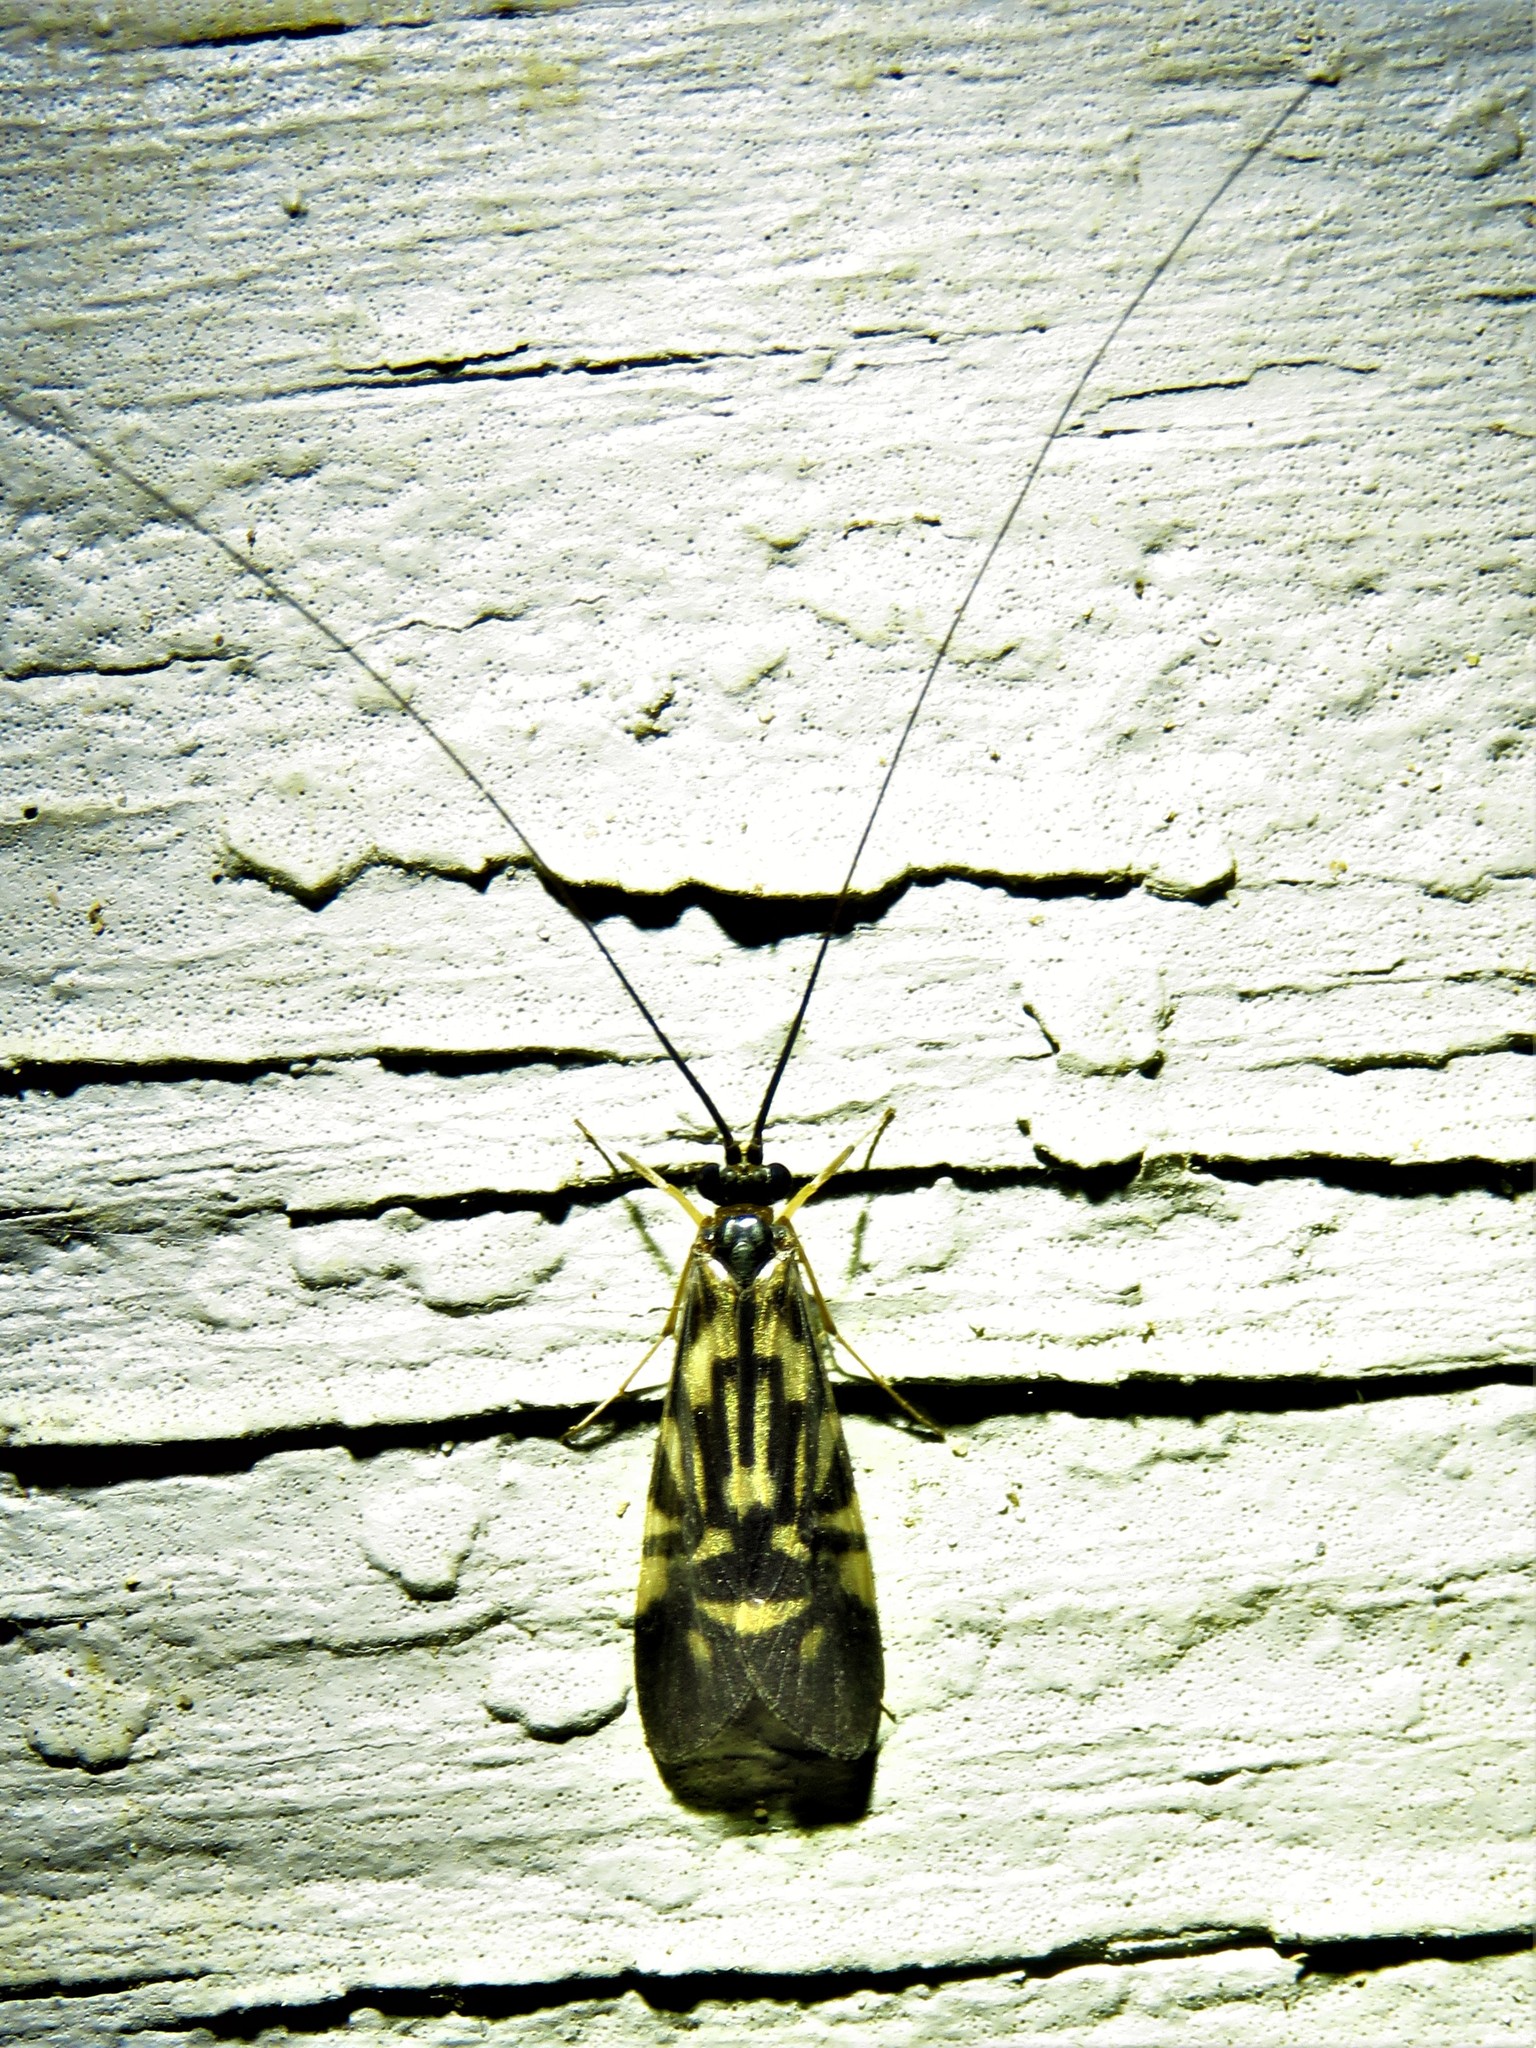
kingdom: Animalia
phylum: Arthropoda
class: Insecta
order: Trichoptera
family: Hydropsychidae
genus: Macrostemum
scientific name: Macrostemum carolina
